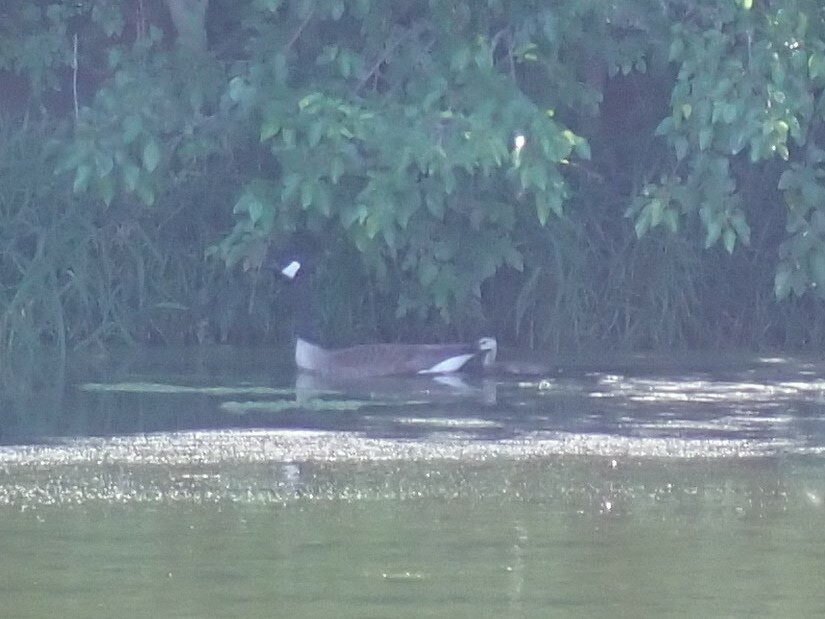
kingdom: Animalia
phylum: Chordata
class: Aves
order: Anseriformes
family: Anatidae
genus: Branta
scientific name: Branta canadensis
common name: Canada goose
